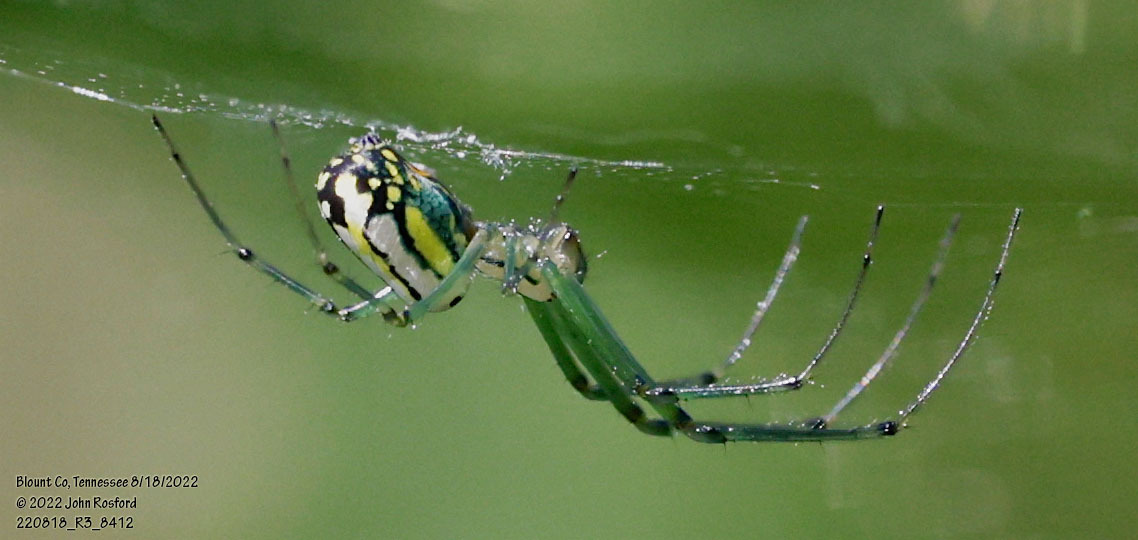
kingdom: Animalia
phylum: Arthropoda
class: Arachnida
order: Araneae
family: Tetragnathidae
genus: Leucauge
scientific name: Leucauge venusta
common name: Longjawed orb weavers
